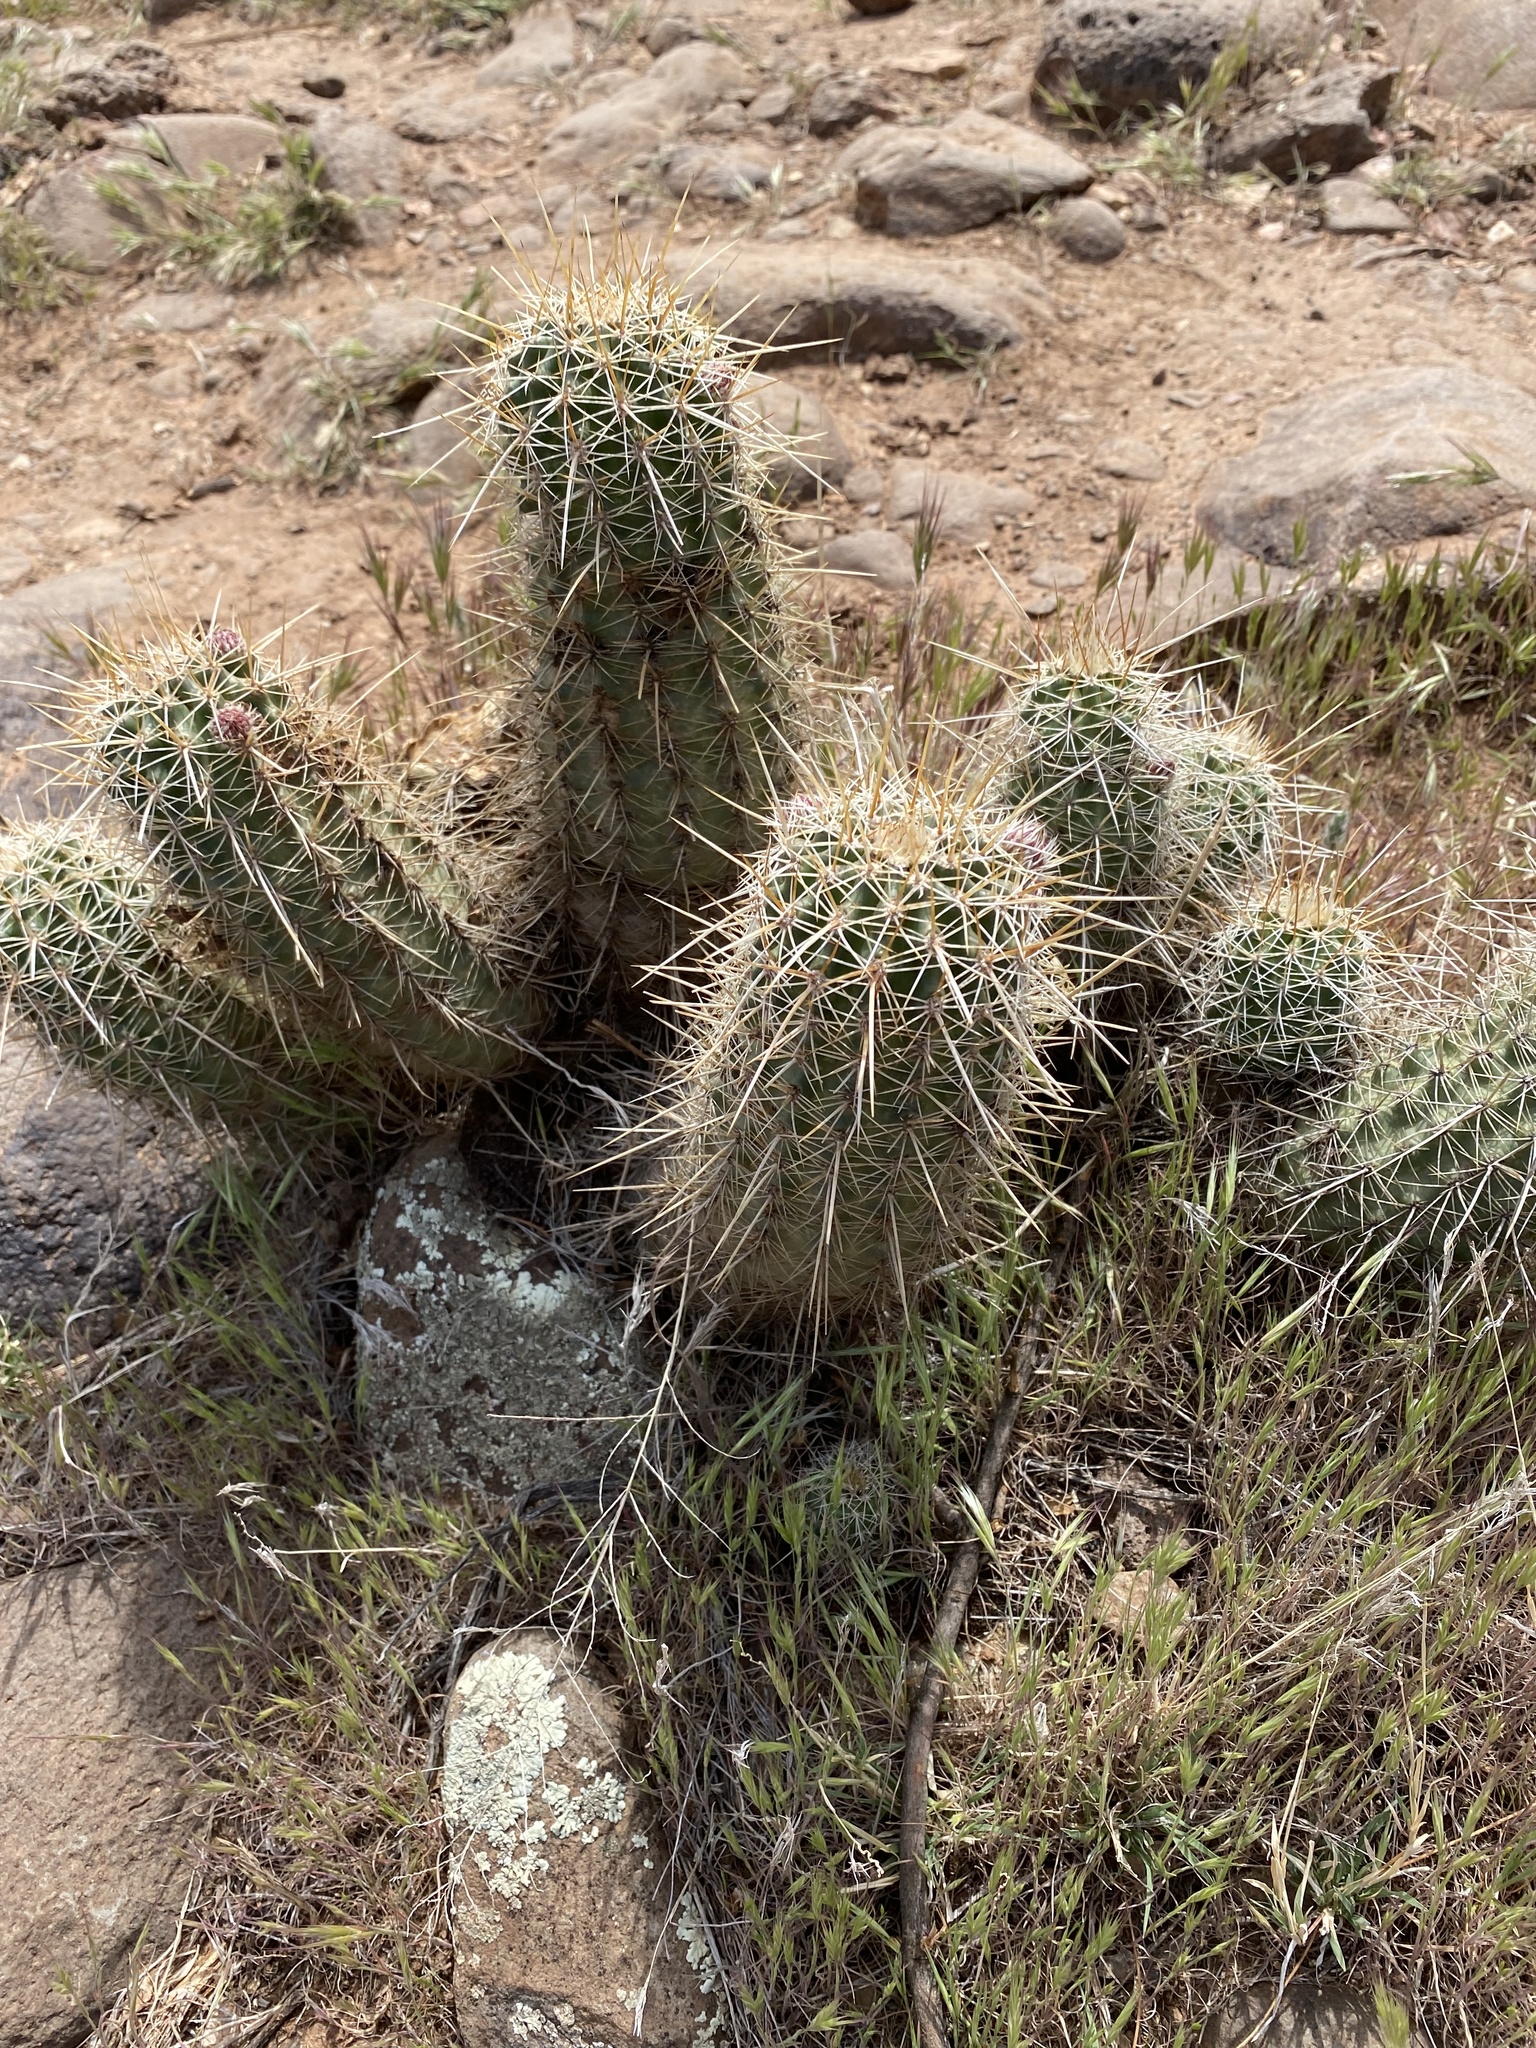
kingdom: Plantae
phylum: Tracheophyta
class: Magnoliopsida
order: Caryophyllales
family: Cactaceae
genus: Echinocereus
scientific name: Echinocereus fasciculatus
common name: Bundle hedgehog
